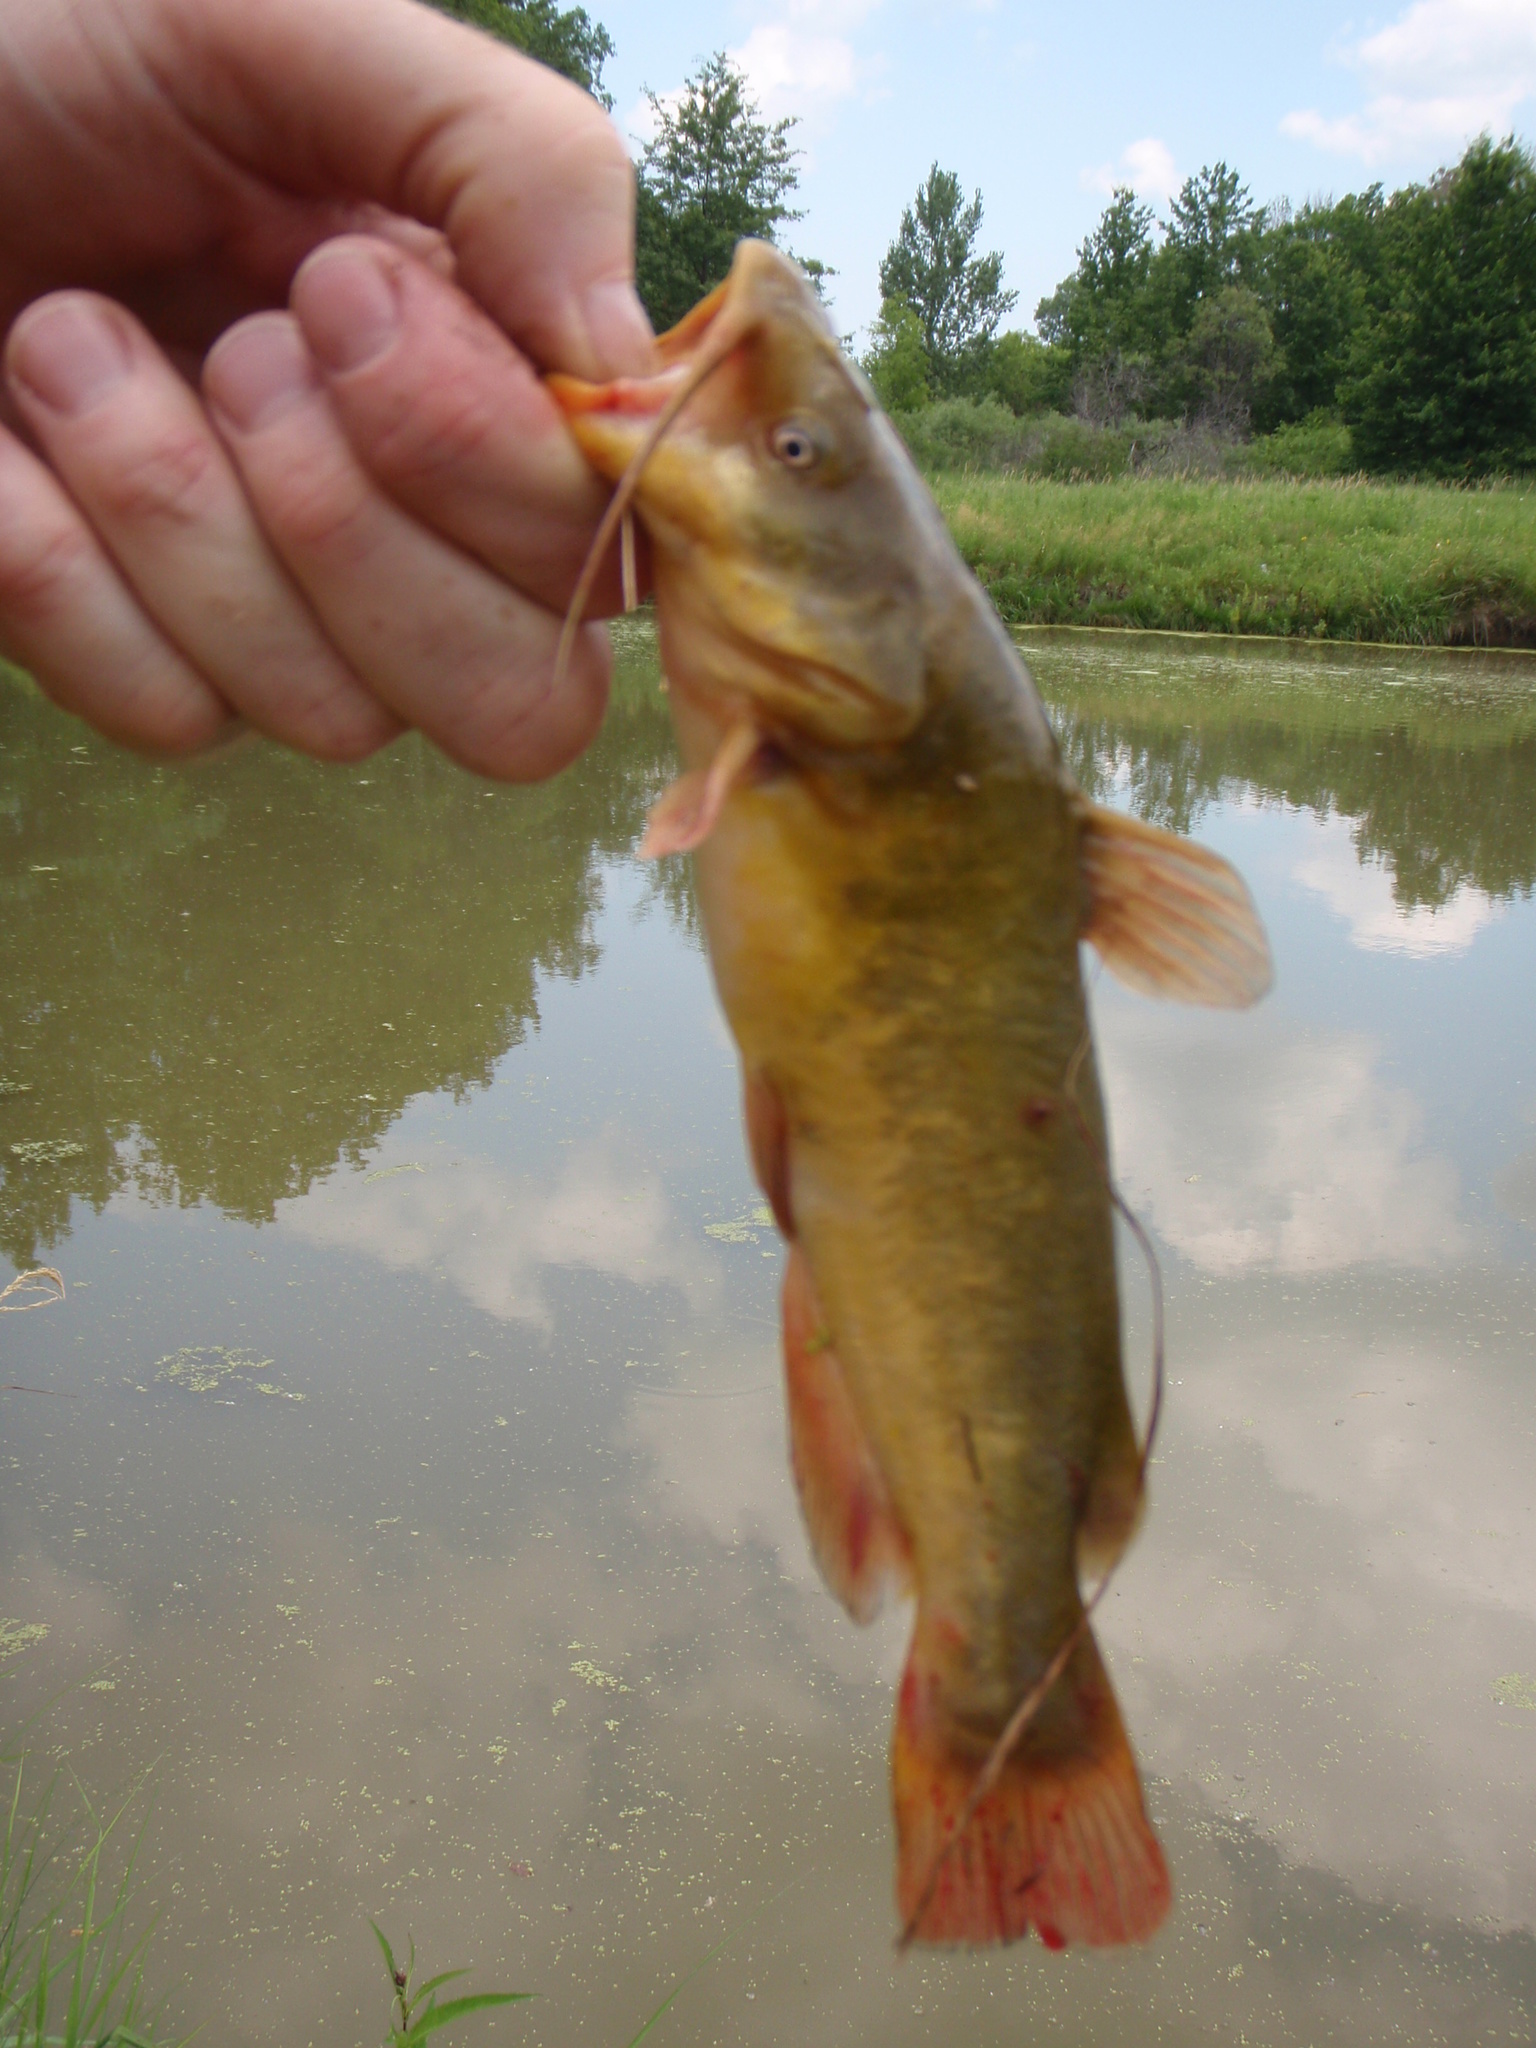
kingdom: Animalia
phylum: Chordata
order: Siluriformes
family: Ictaluridae
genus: Ameiurus
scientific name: Ameiurus natalis
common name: Yellow bullhead
